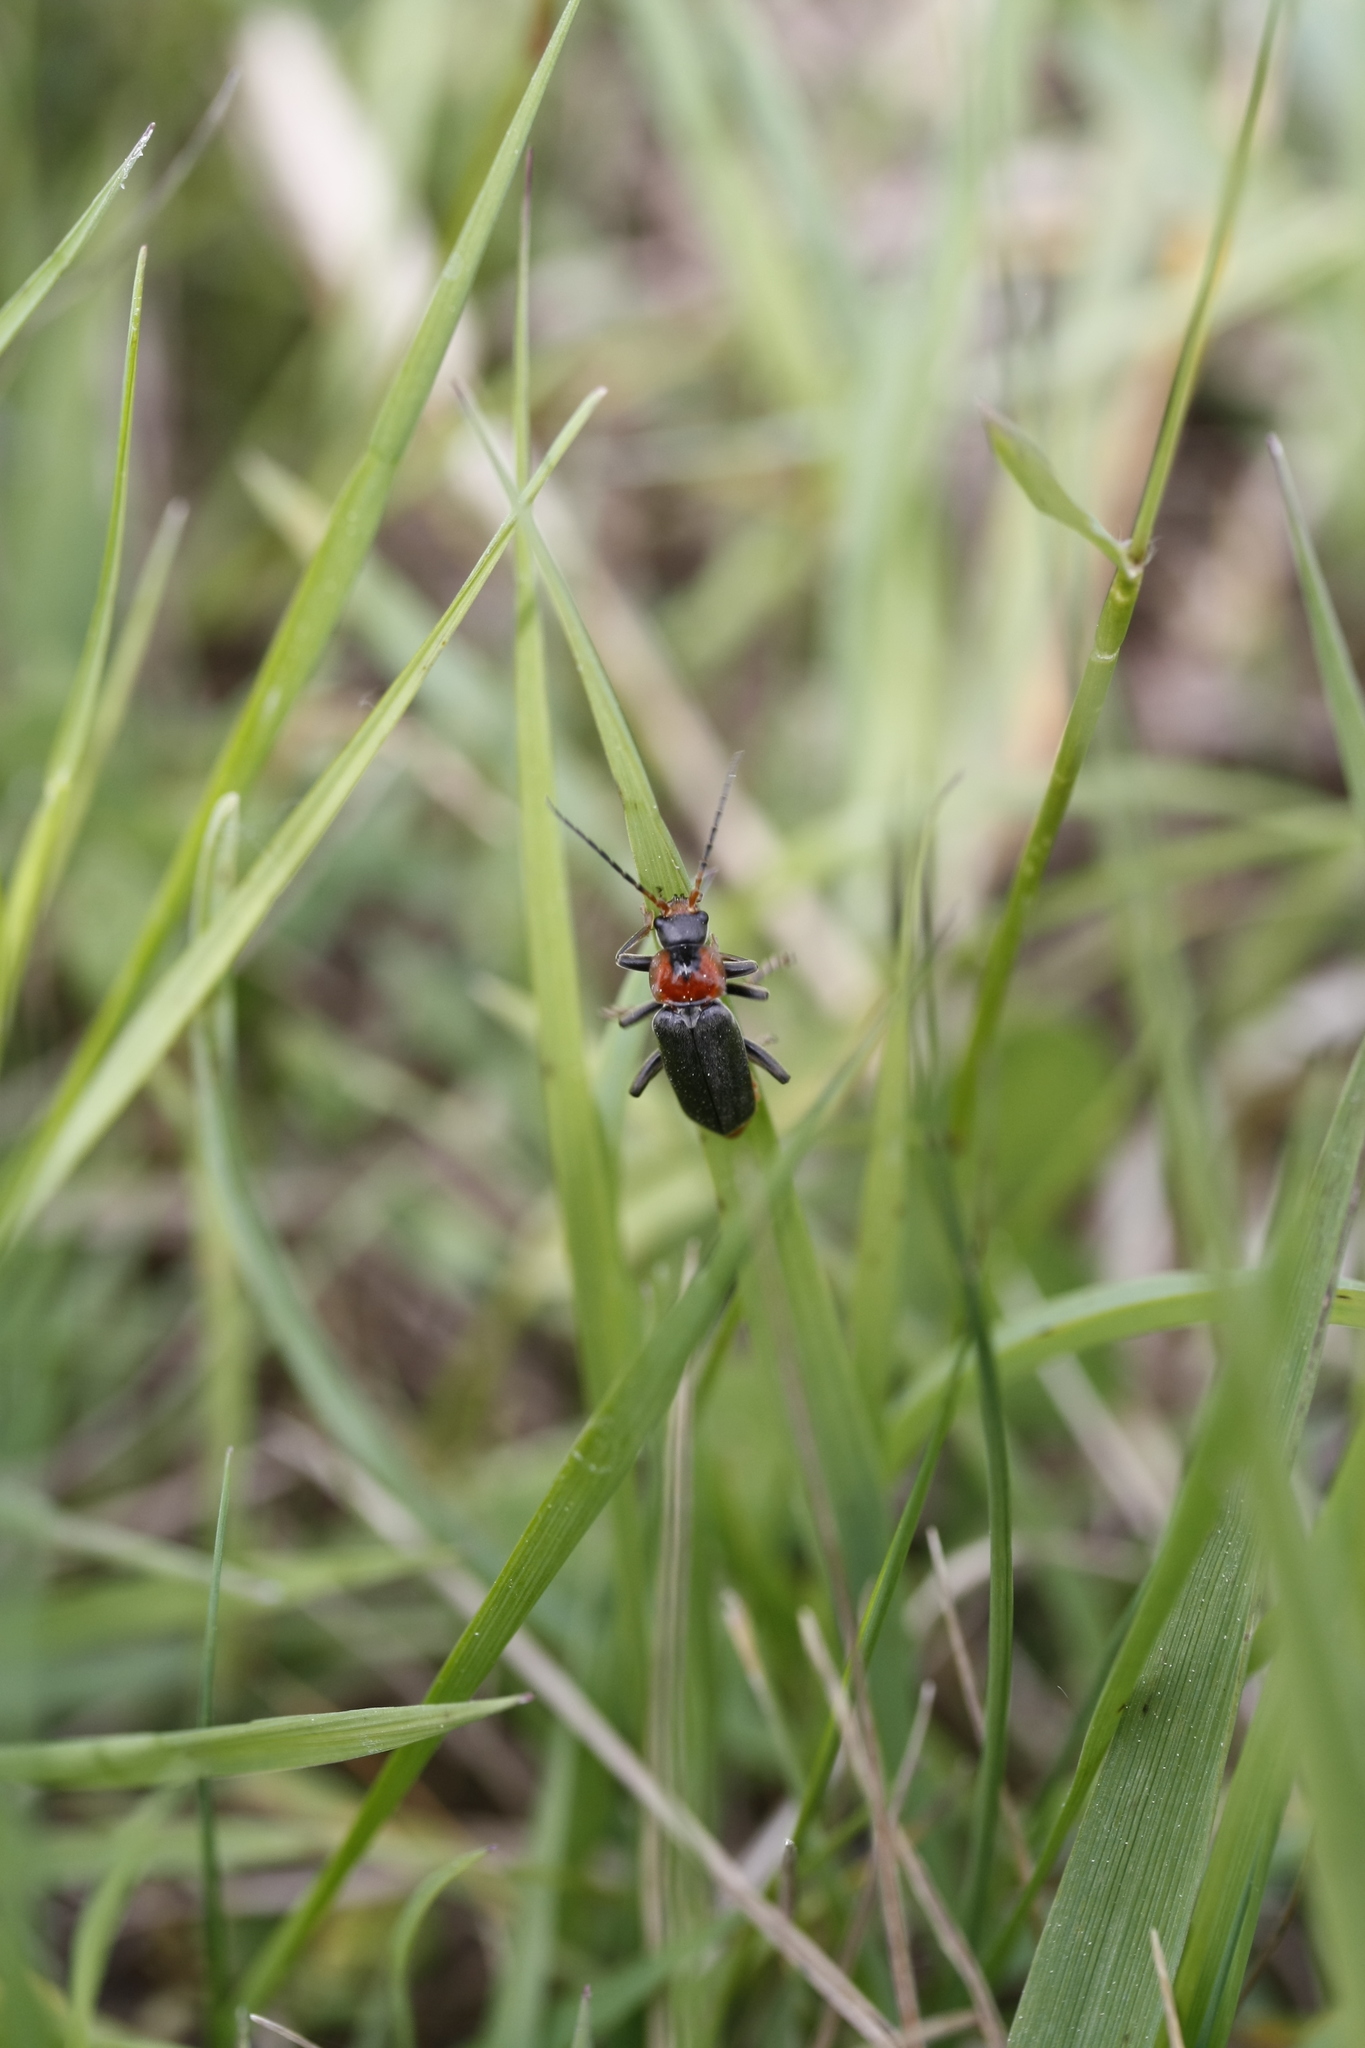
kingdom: Animalia
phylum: Arthropoda
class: Insecta
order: Coleoptera
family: Cantharidae
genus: Cantharis
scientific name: Cantharis fusca
